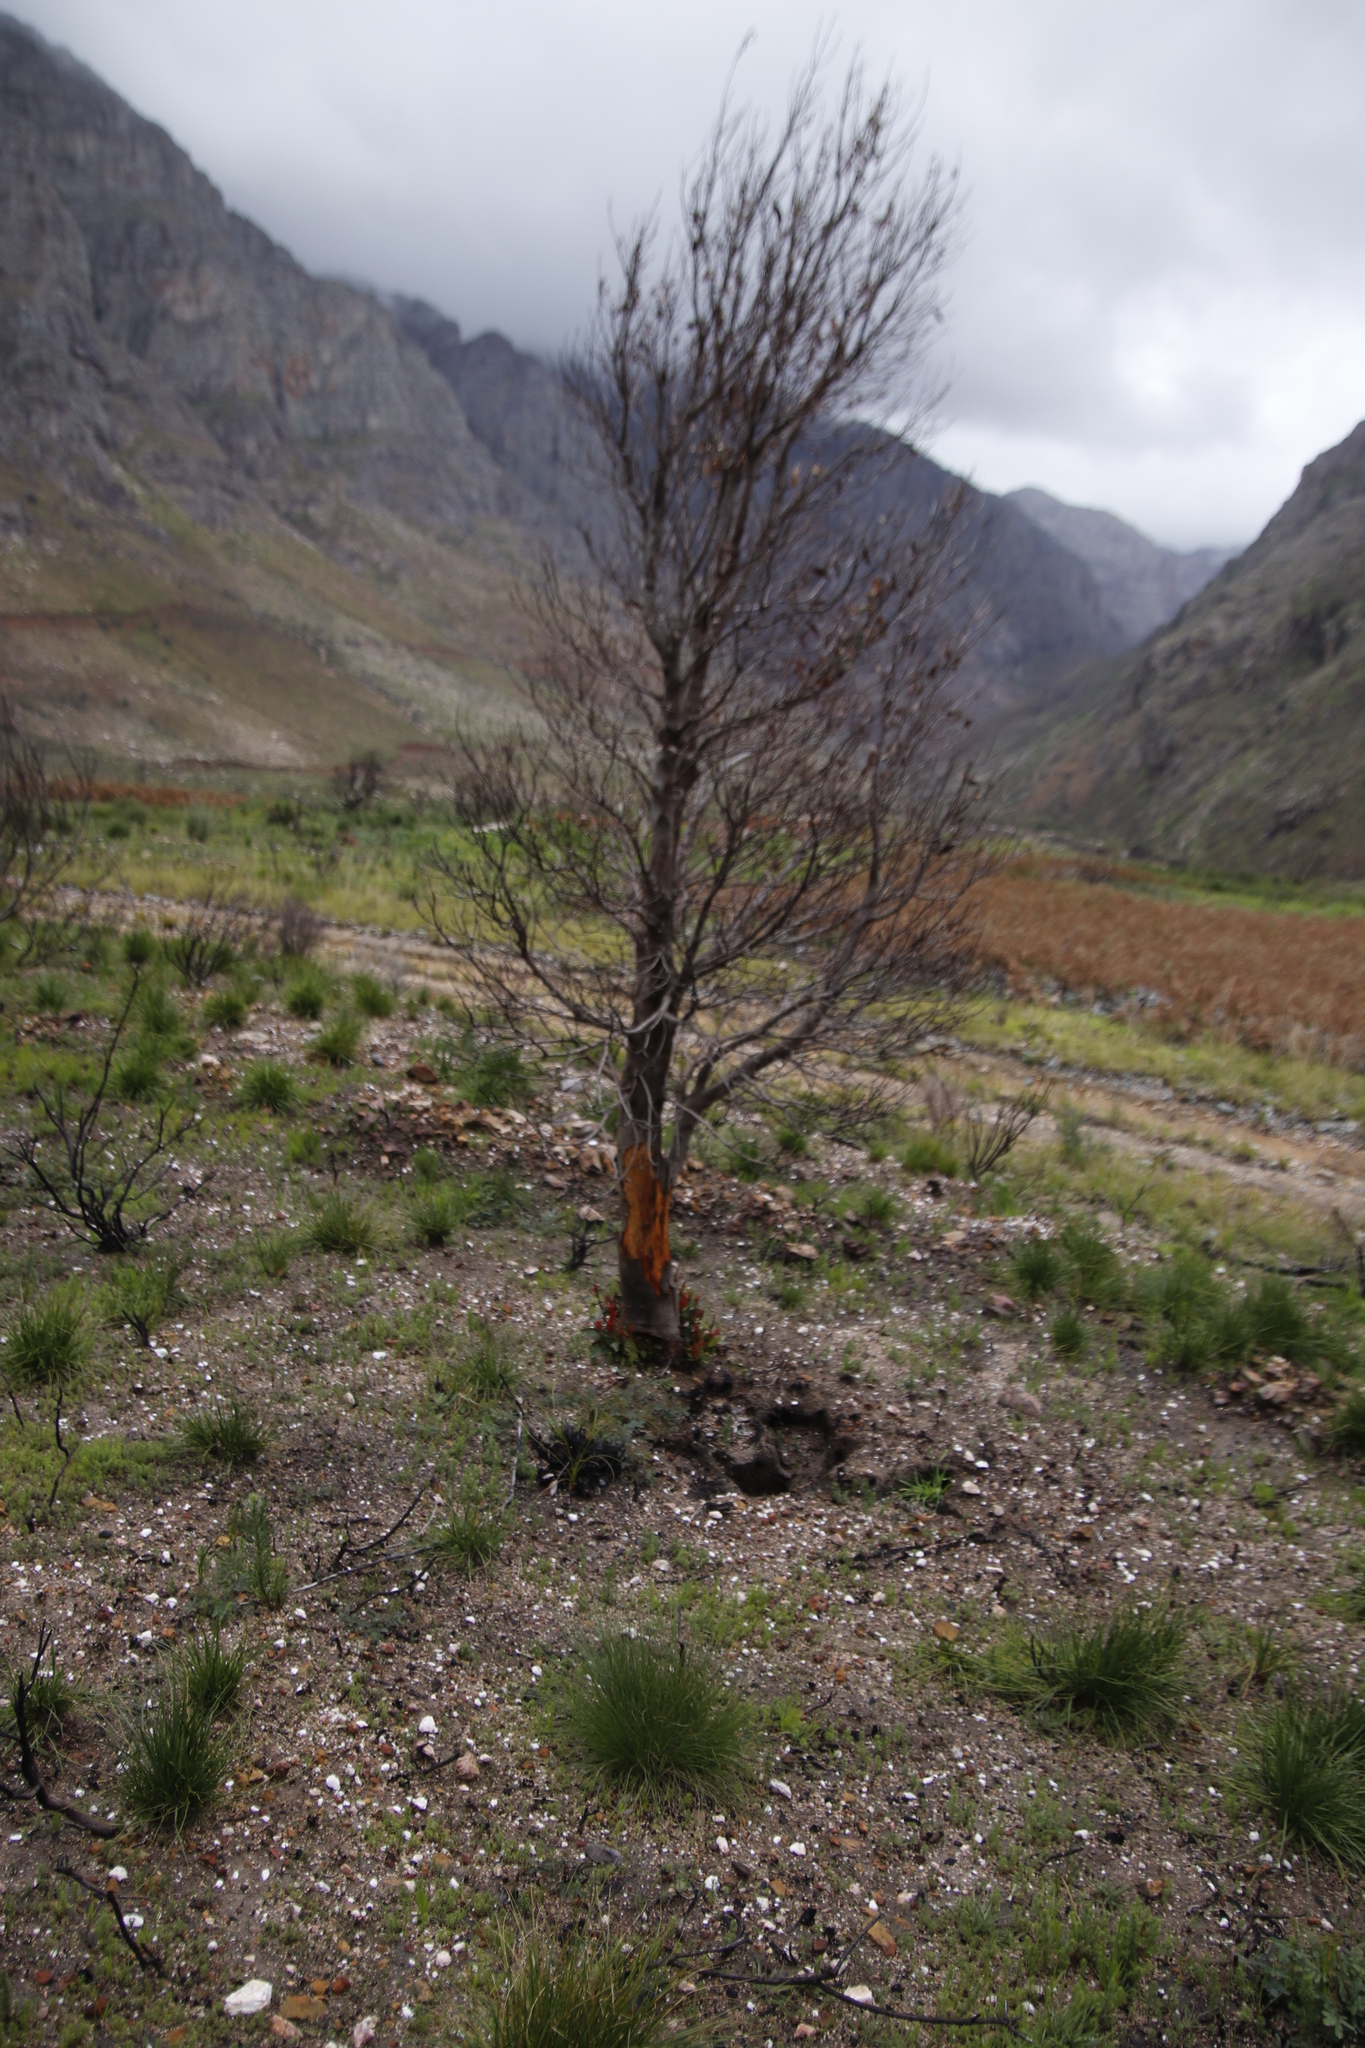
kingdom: Plantae
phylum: Tracheophyta
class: Magnoliopsida
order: Celastrales
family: Celastraceae
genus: Elaeodendron
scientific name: Elaeodendron schinoides
